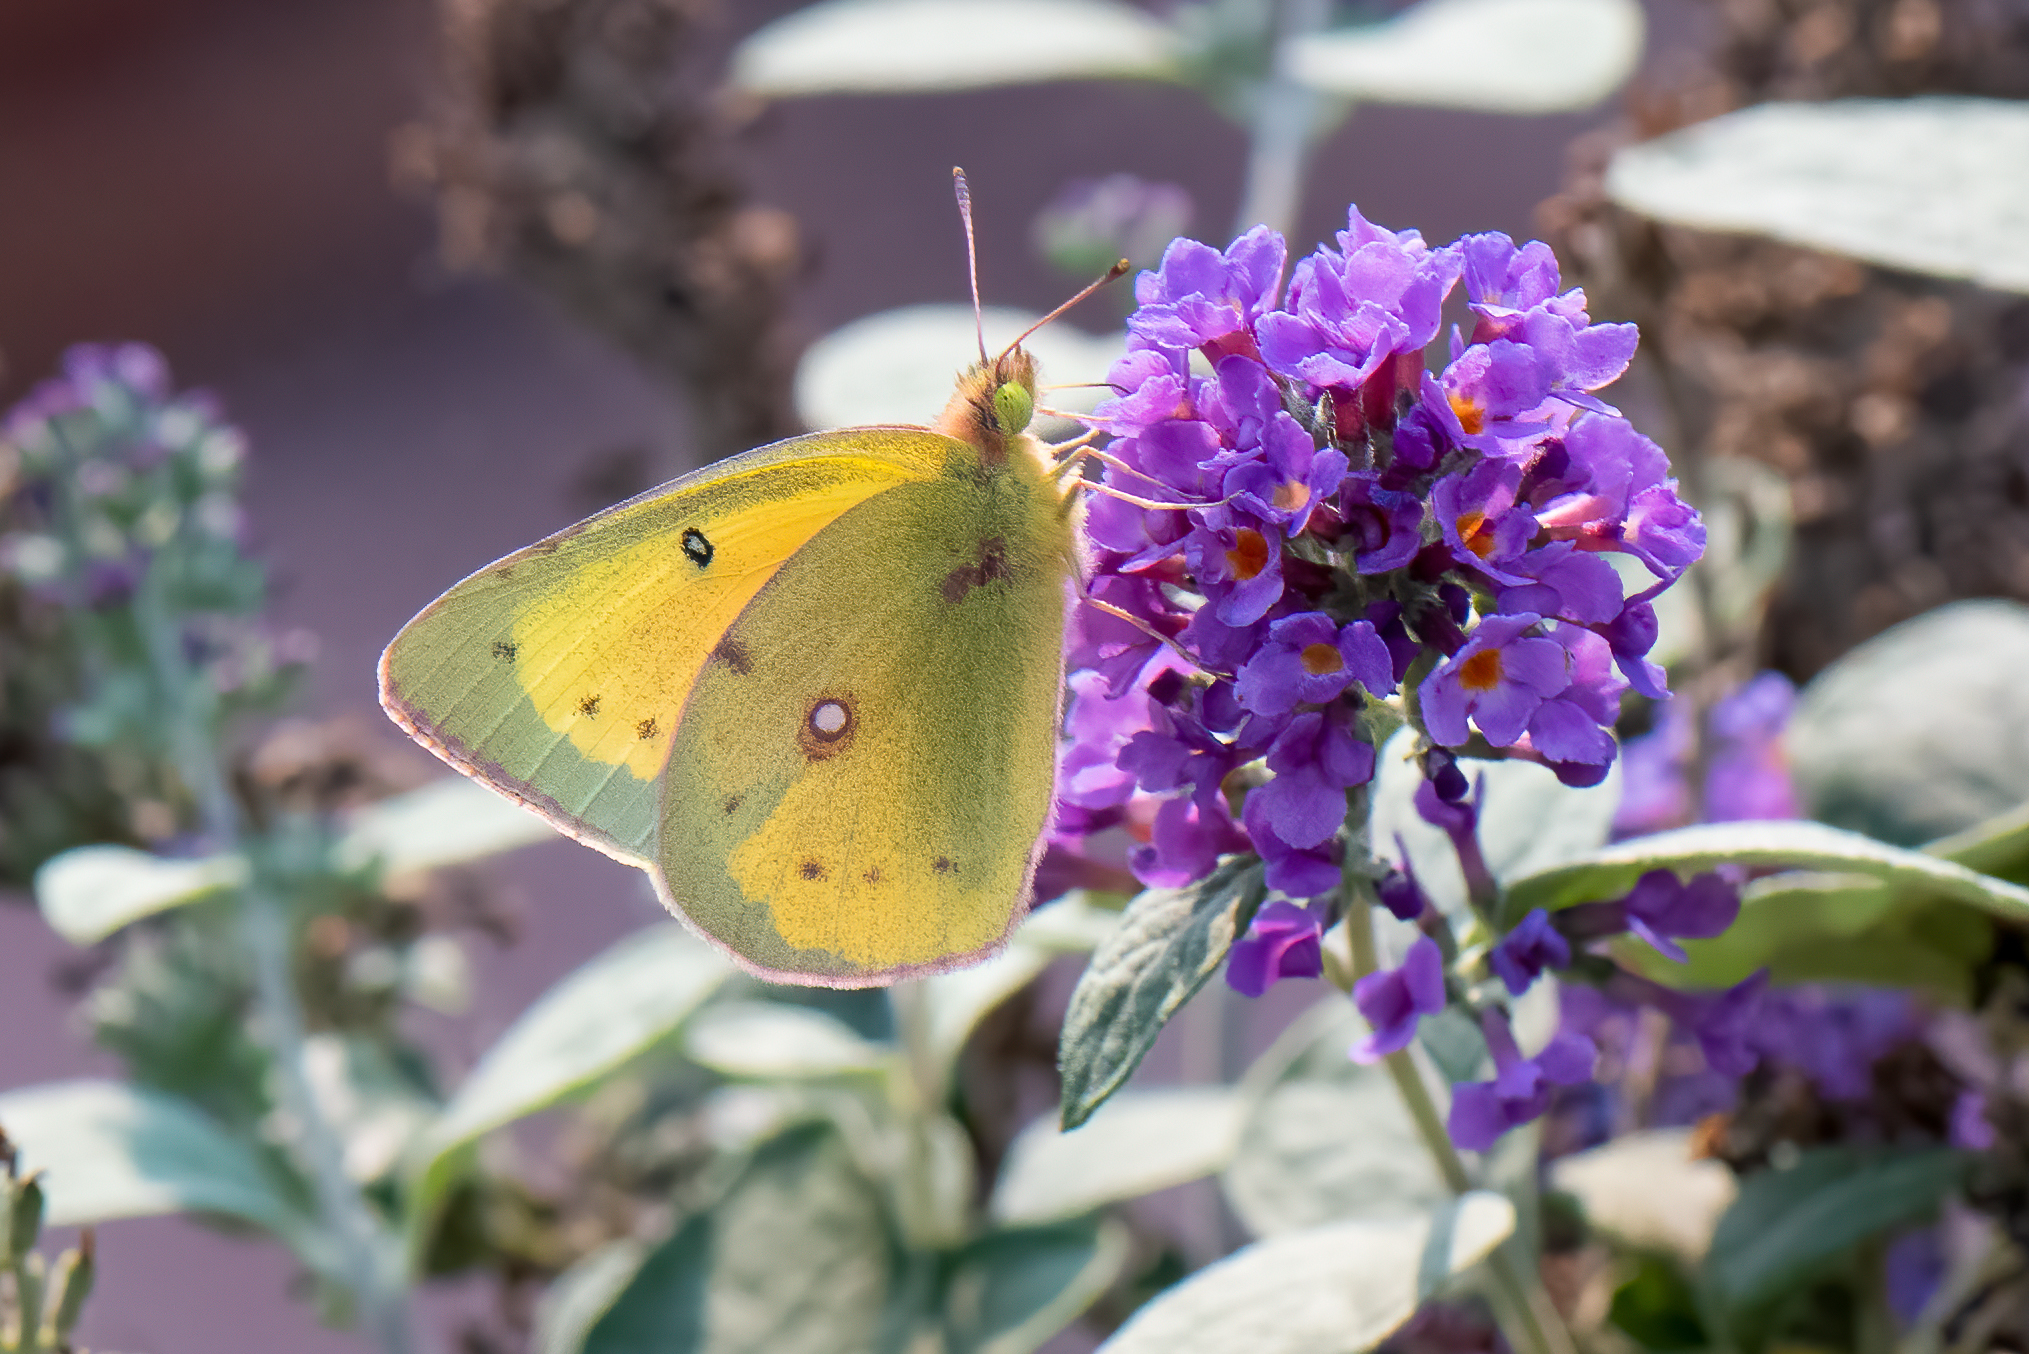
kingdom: Animalia
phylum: Arthropoda
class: Insecta
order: Lepidoptera
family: Pieridae
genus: Colias
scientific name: Colias eurytheme
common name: Alfalfa butterfly
